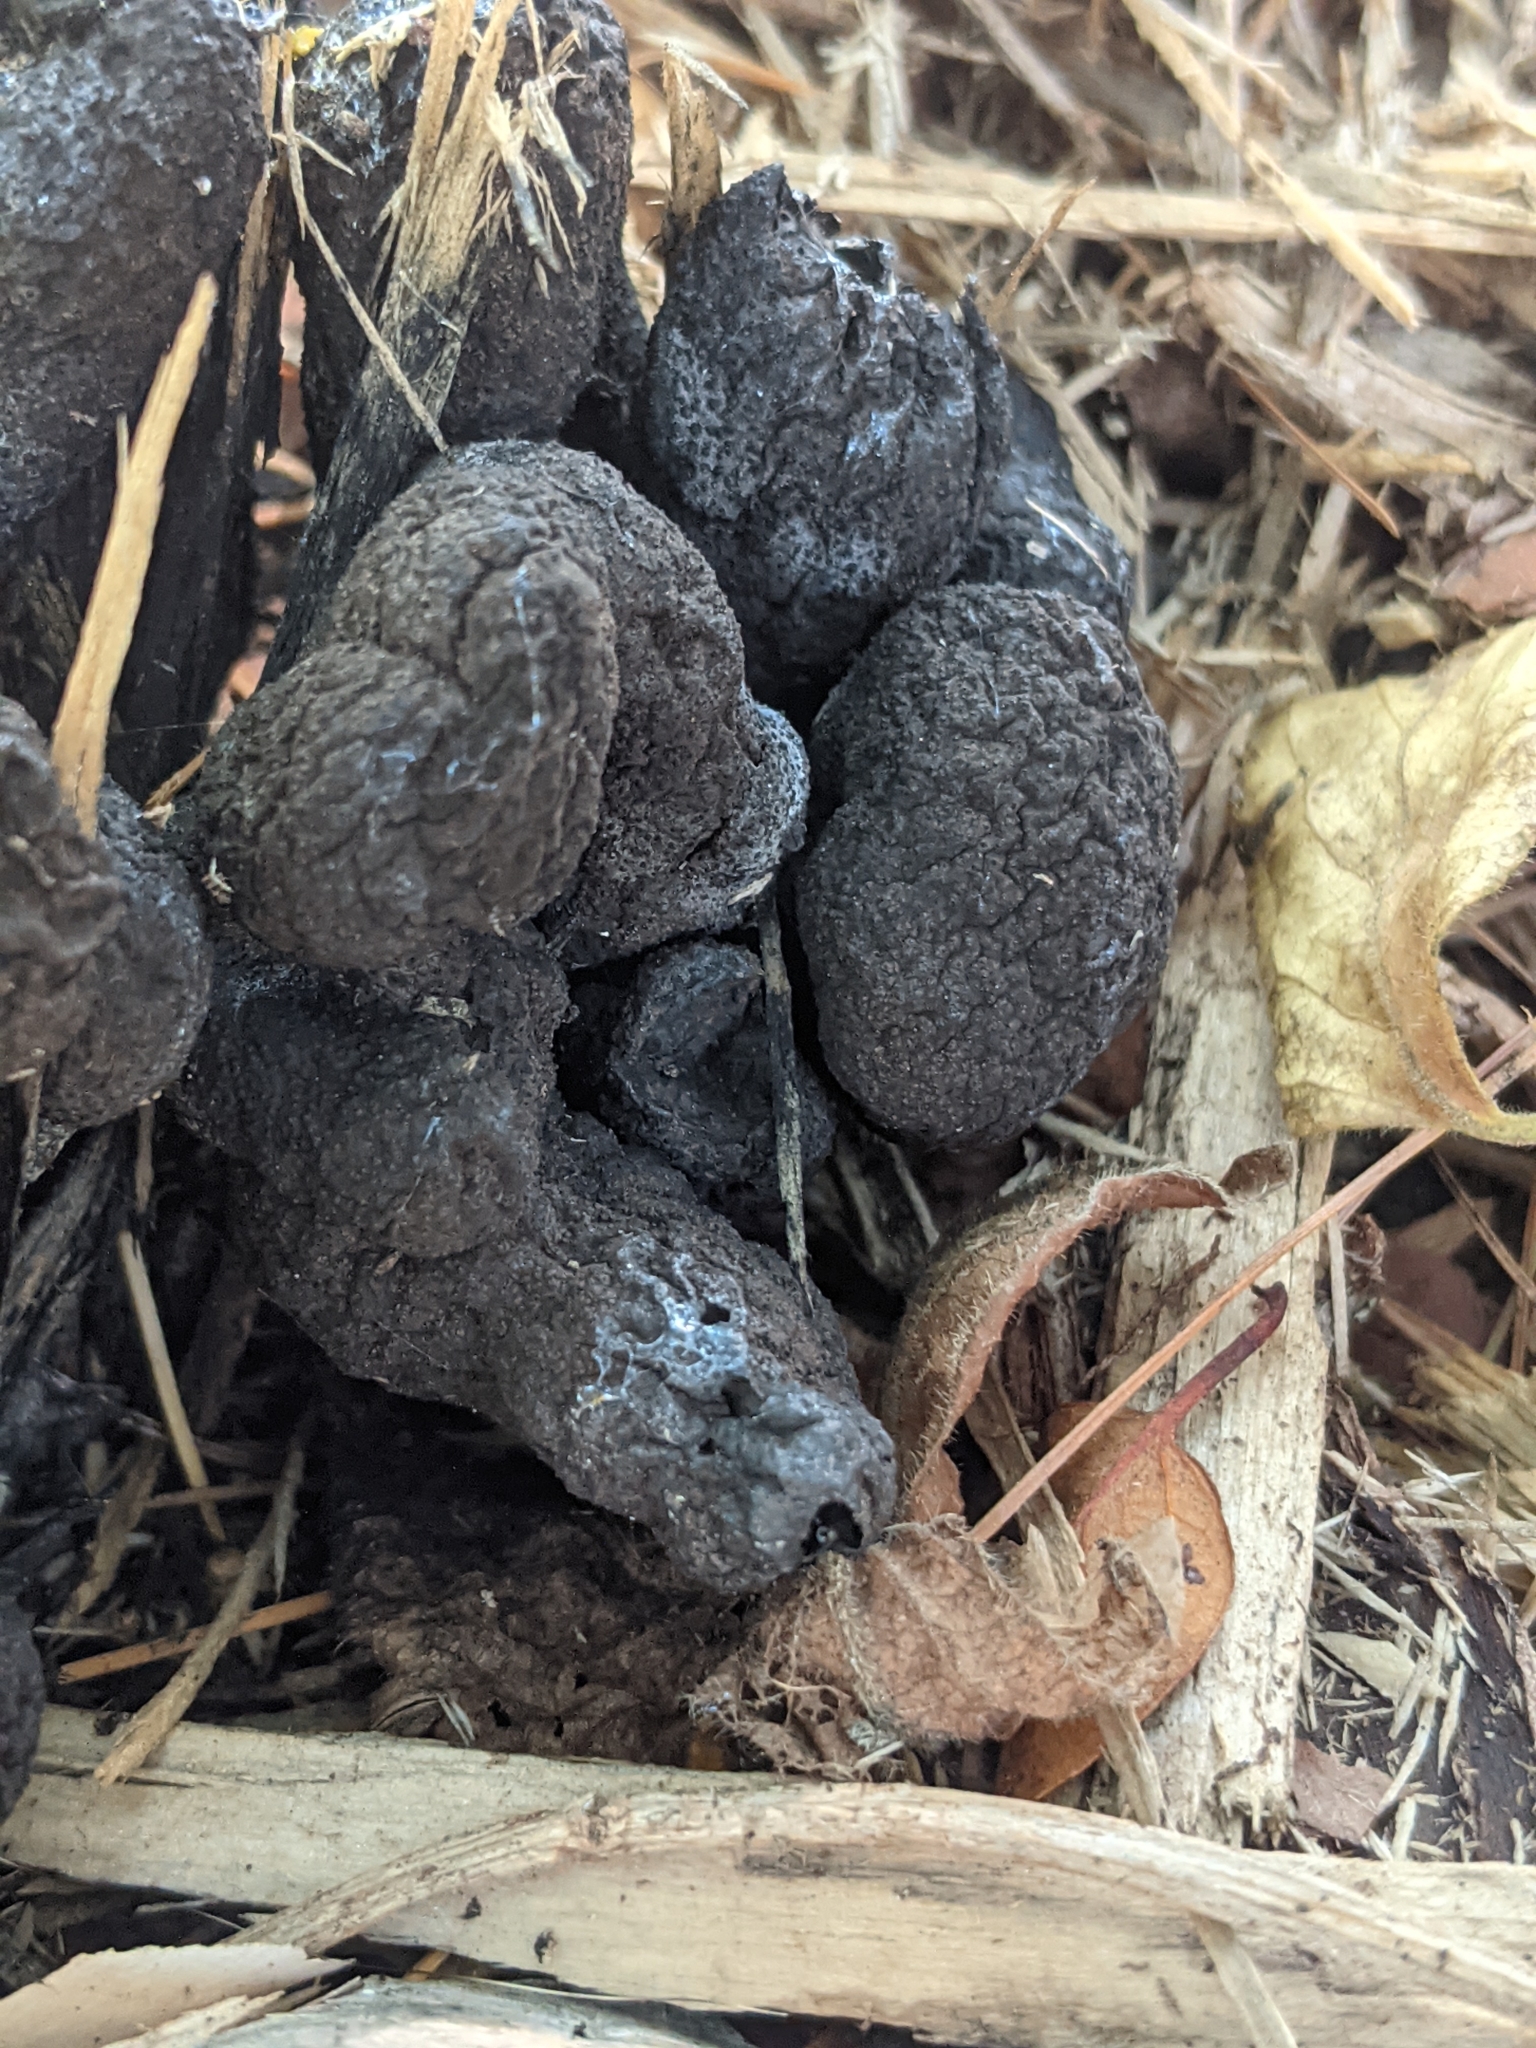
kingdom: Fungi
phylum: Ascomycota
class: Sordariomycetes
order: Xylariales
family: Xylariaceae
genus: Xylaria
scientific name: Xylaria polymorpha
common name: Dead man's fingers
